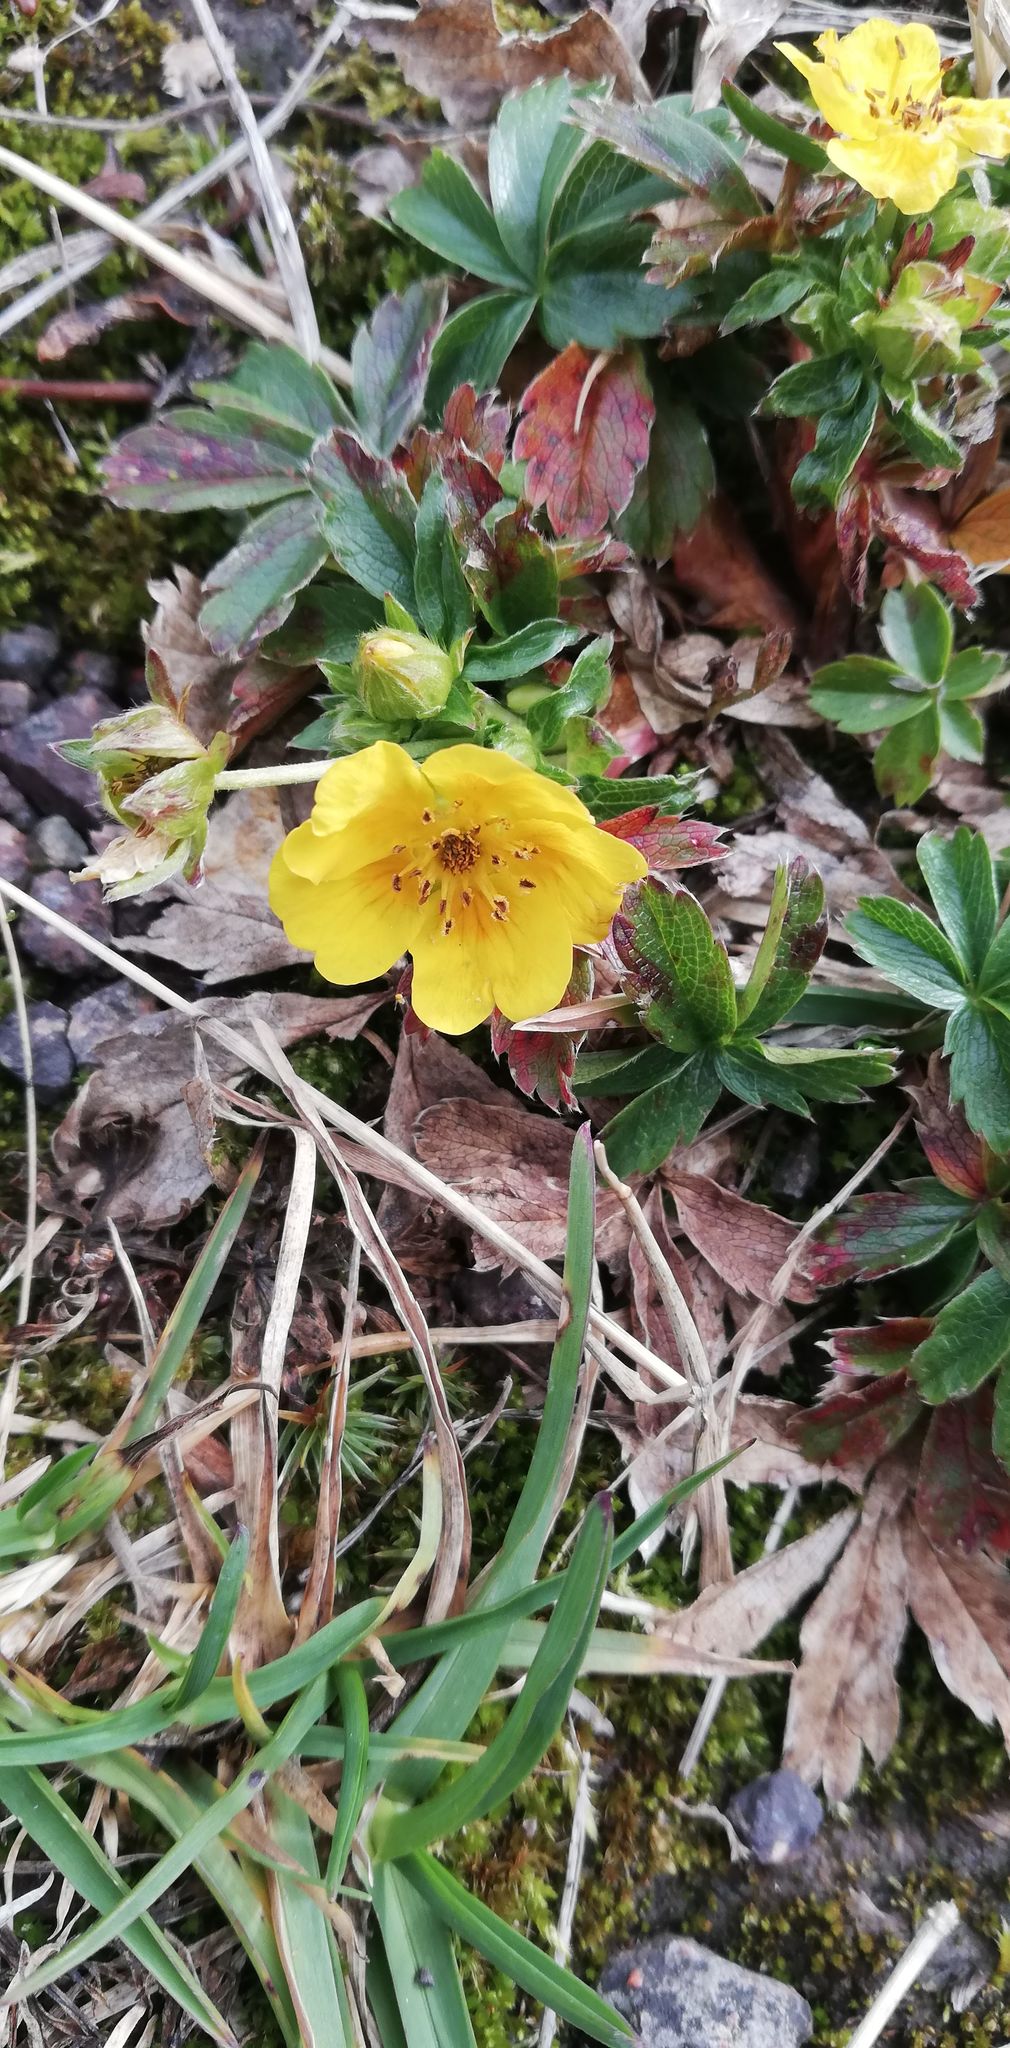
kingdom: Plantae
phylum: Tracheophyta
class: Magnoliopsida
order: Rosales
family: Rosaceae
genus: Potentilla
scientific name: Potentilla aurea
